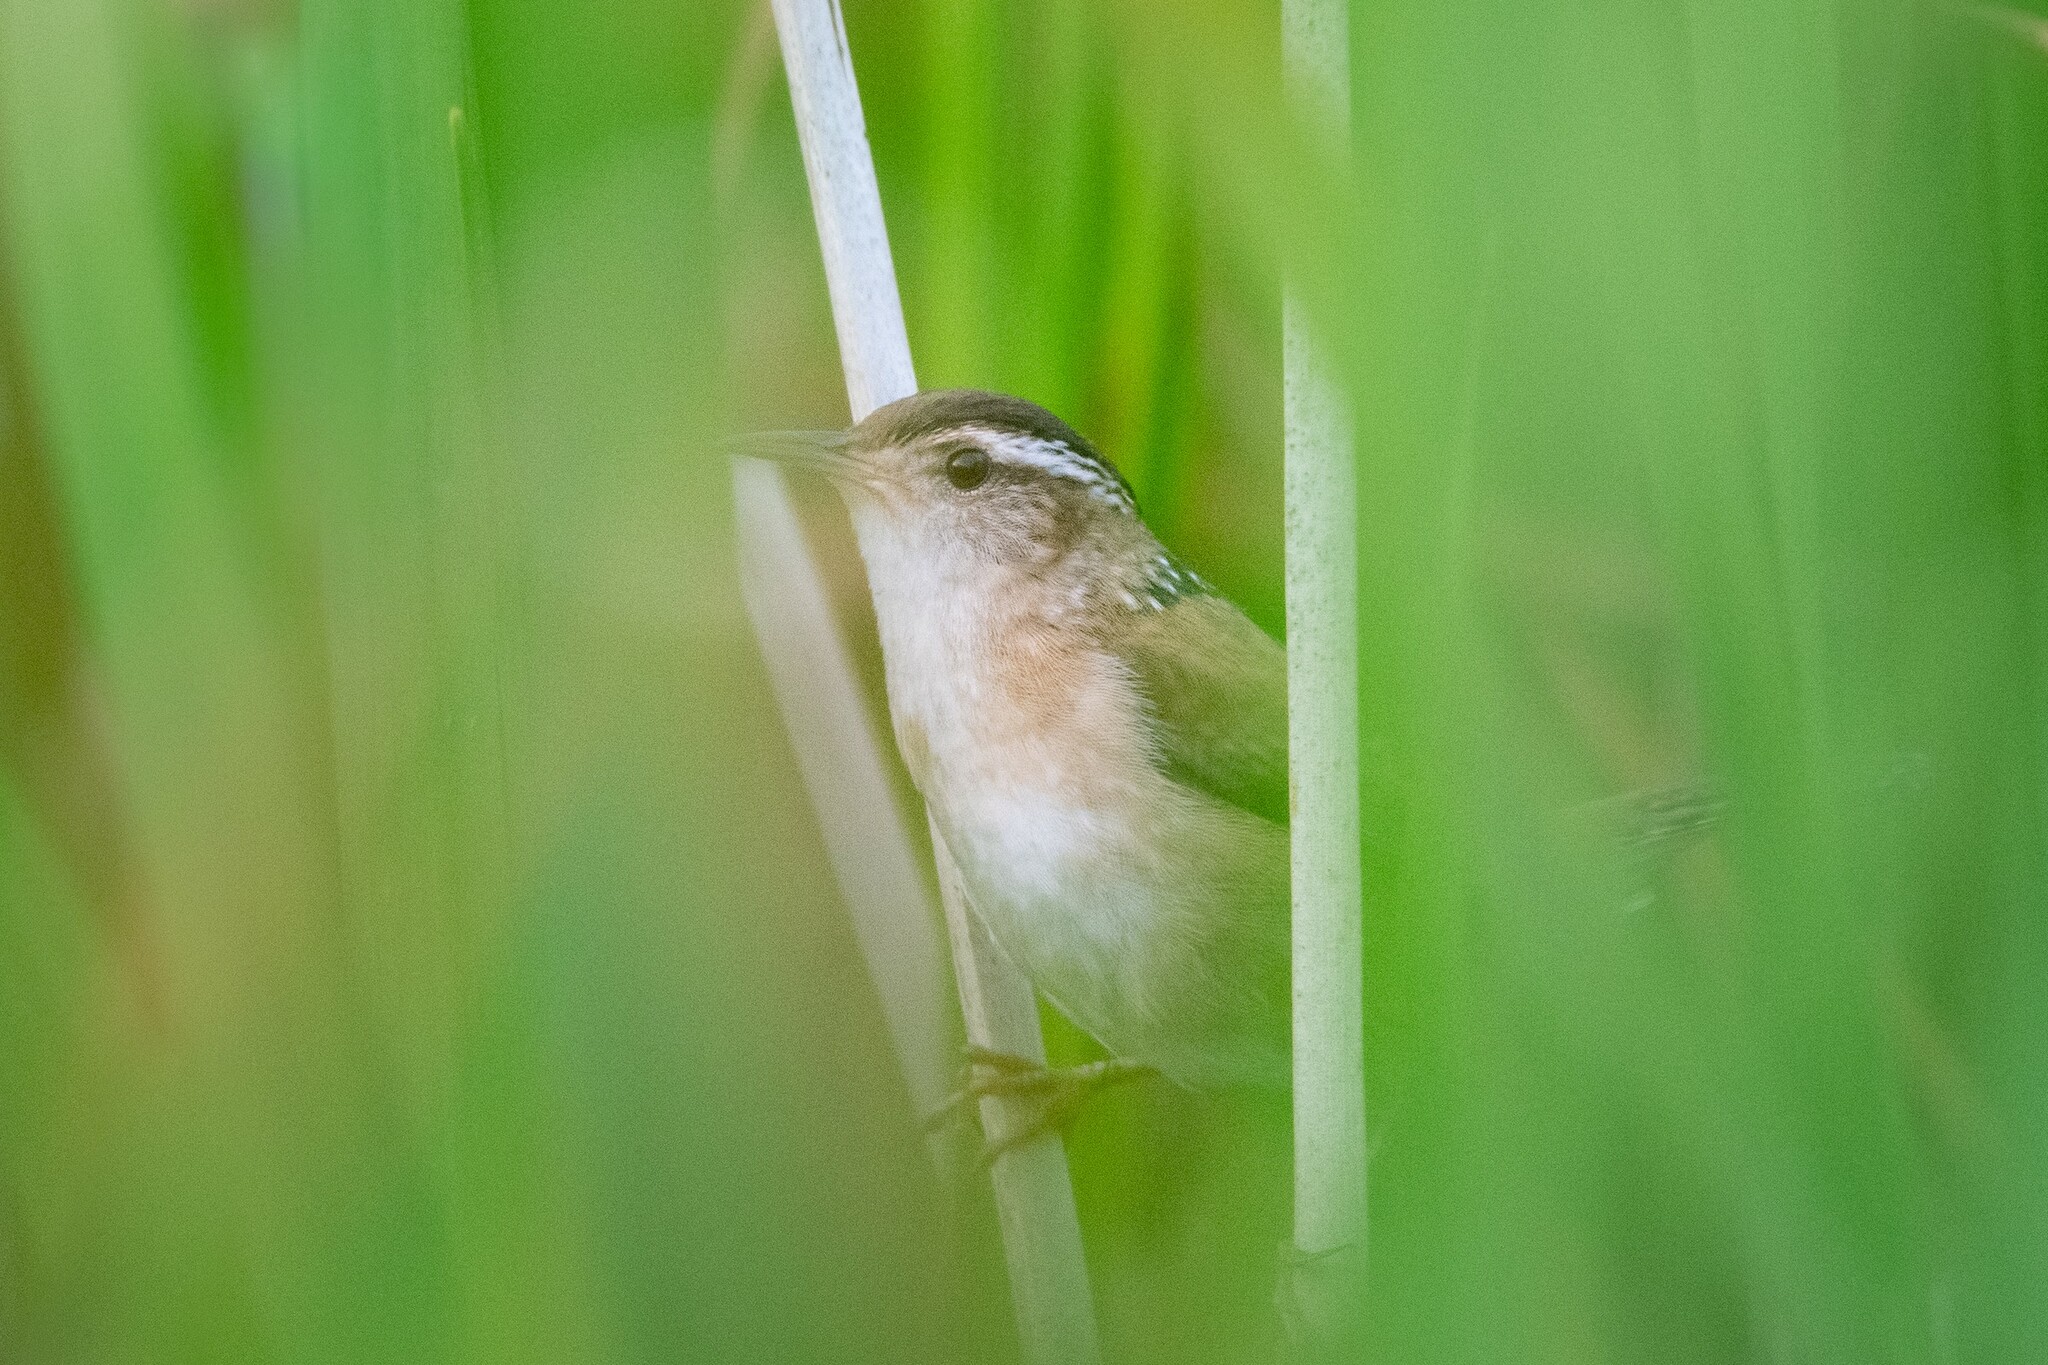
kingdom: Animalia
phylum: Chordata
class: Aves
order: Passeriformes
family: Troglodytidae
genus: Cistothorus
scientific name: Cistothorus palustris
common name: Marsh wren
